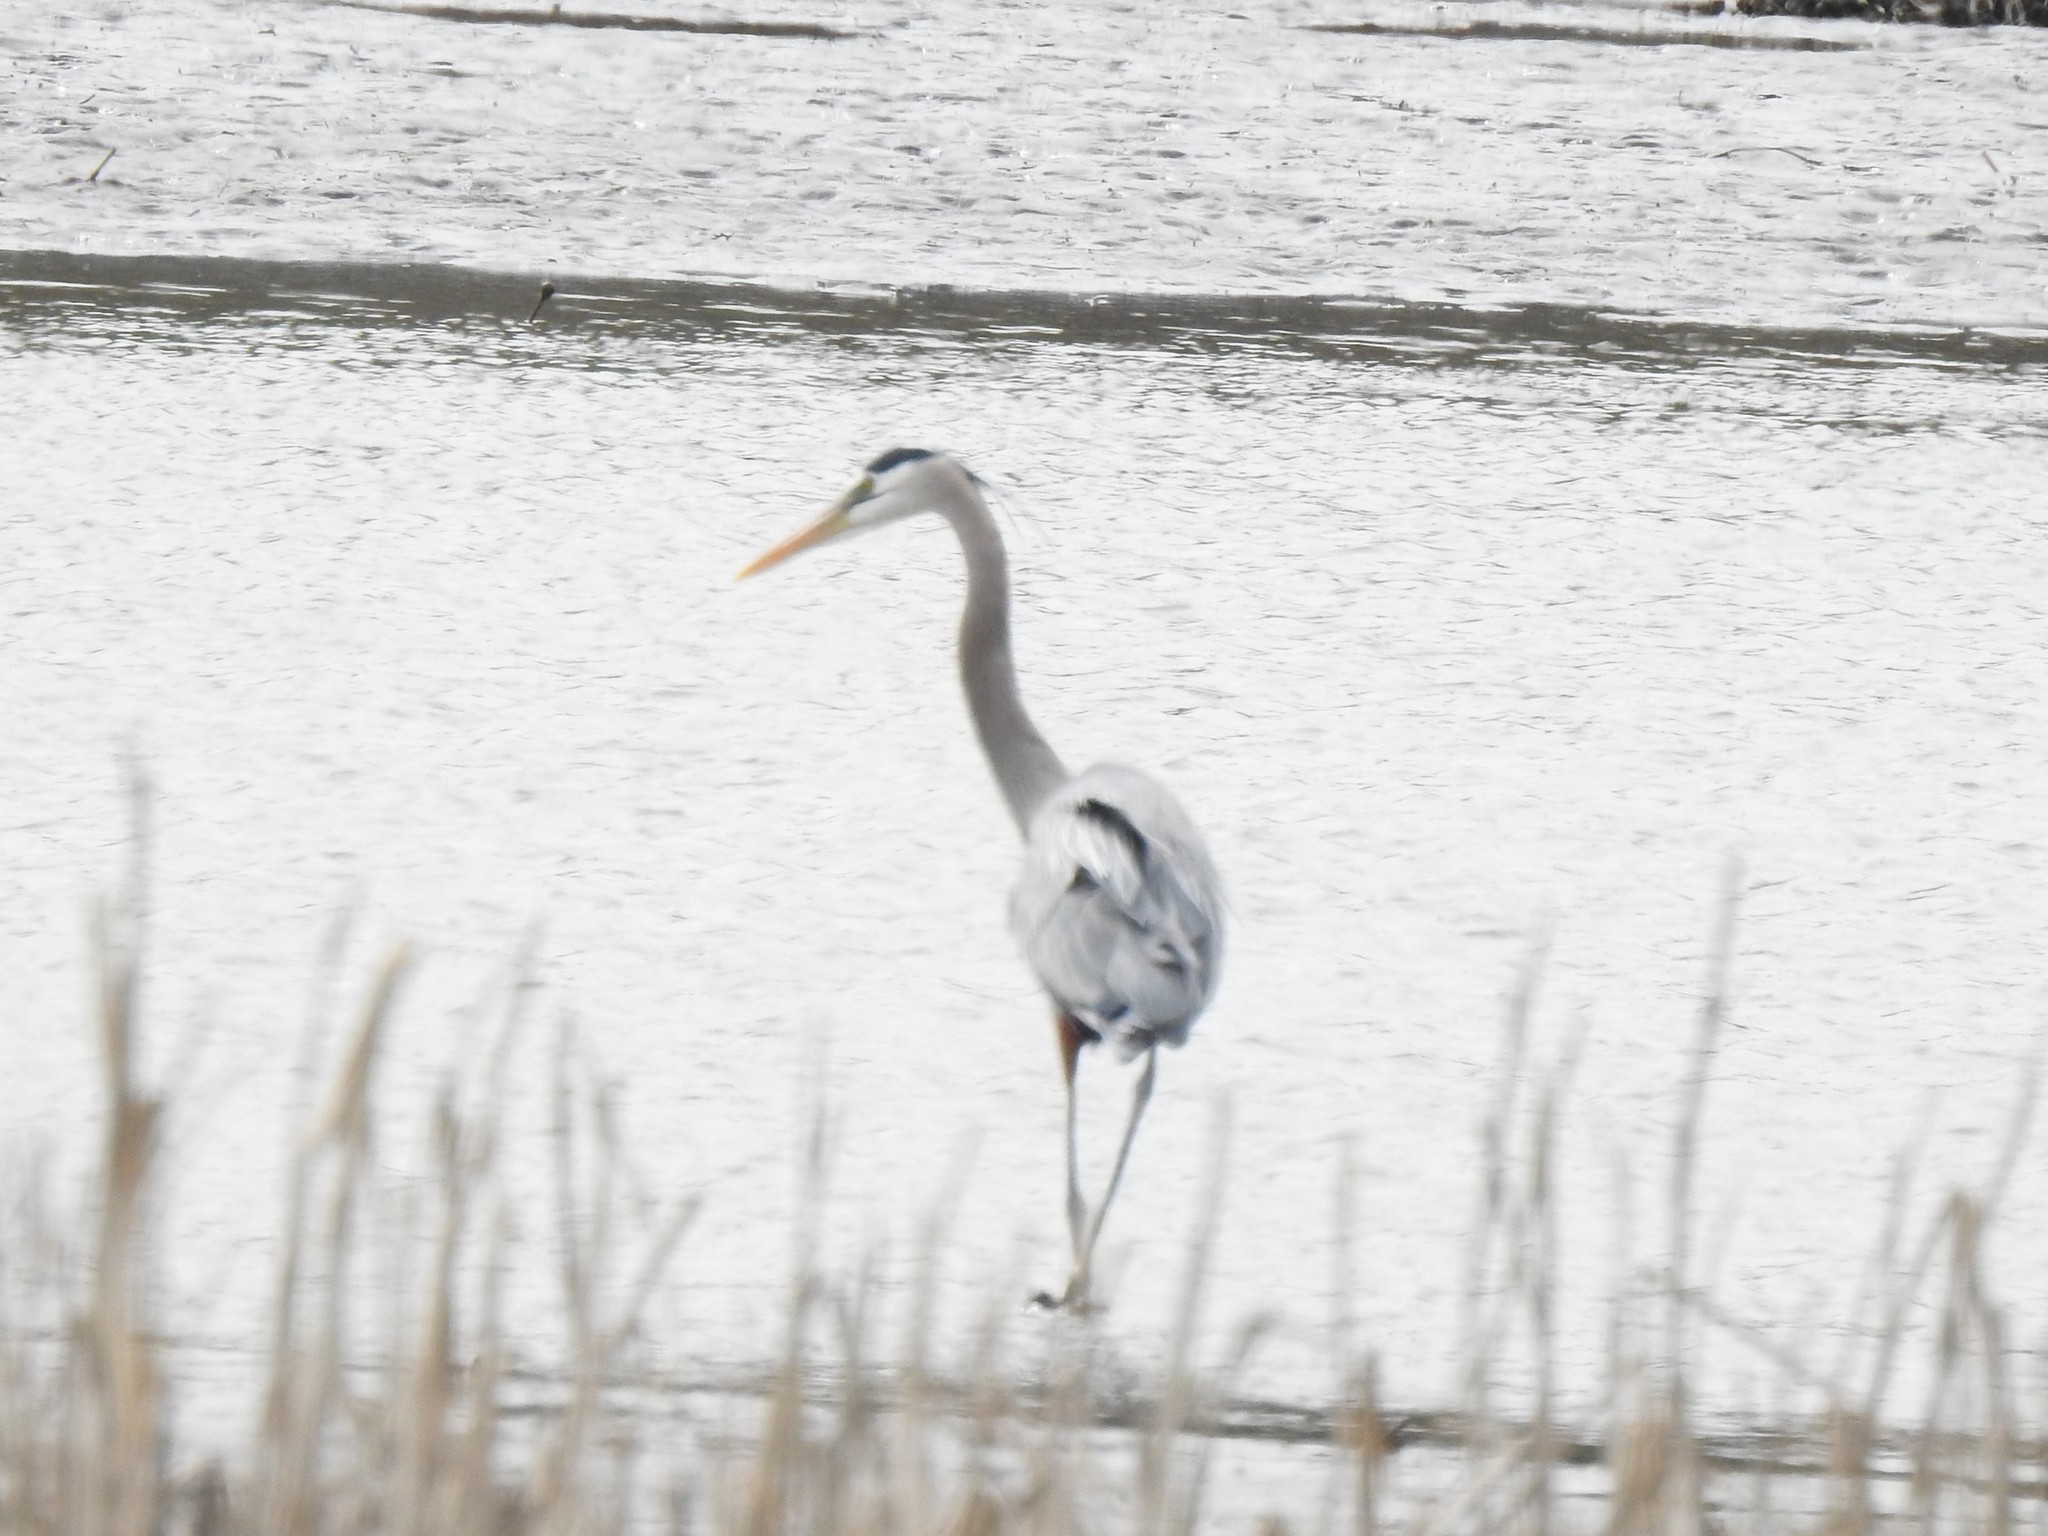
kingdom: Animalia
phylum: Chordata
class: Aves
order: Pelecaniformes
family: Ardeidae
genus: Ardea
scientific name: Ardea herodias
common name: Great blue heron
